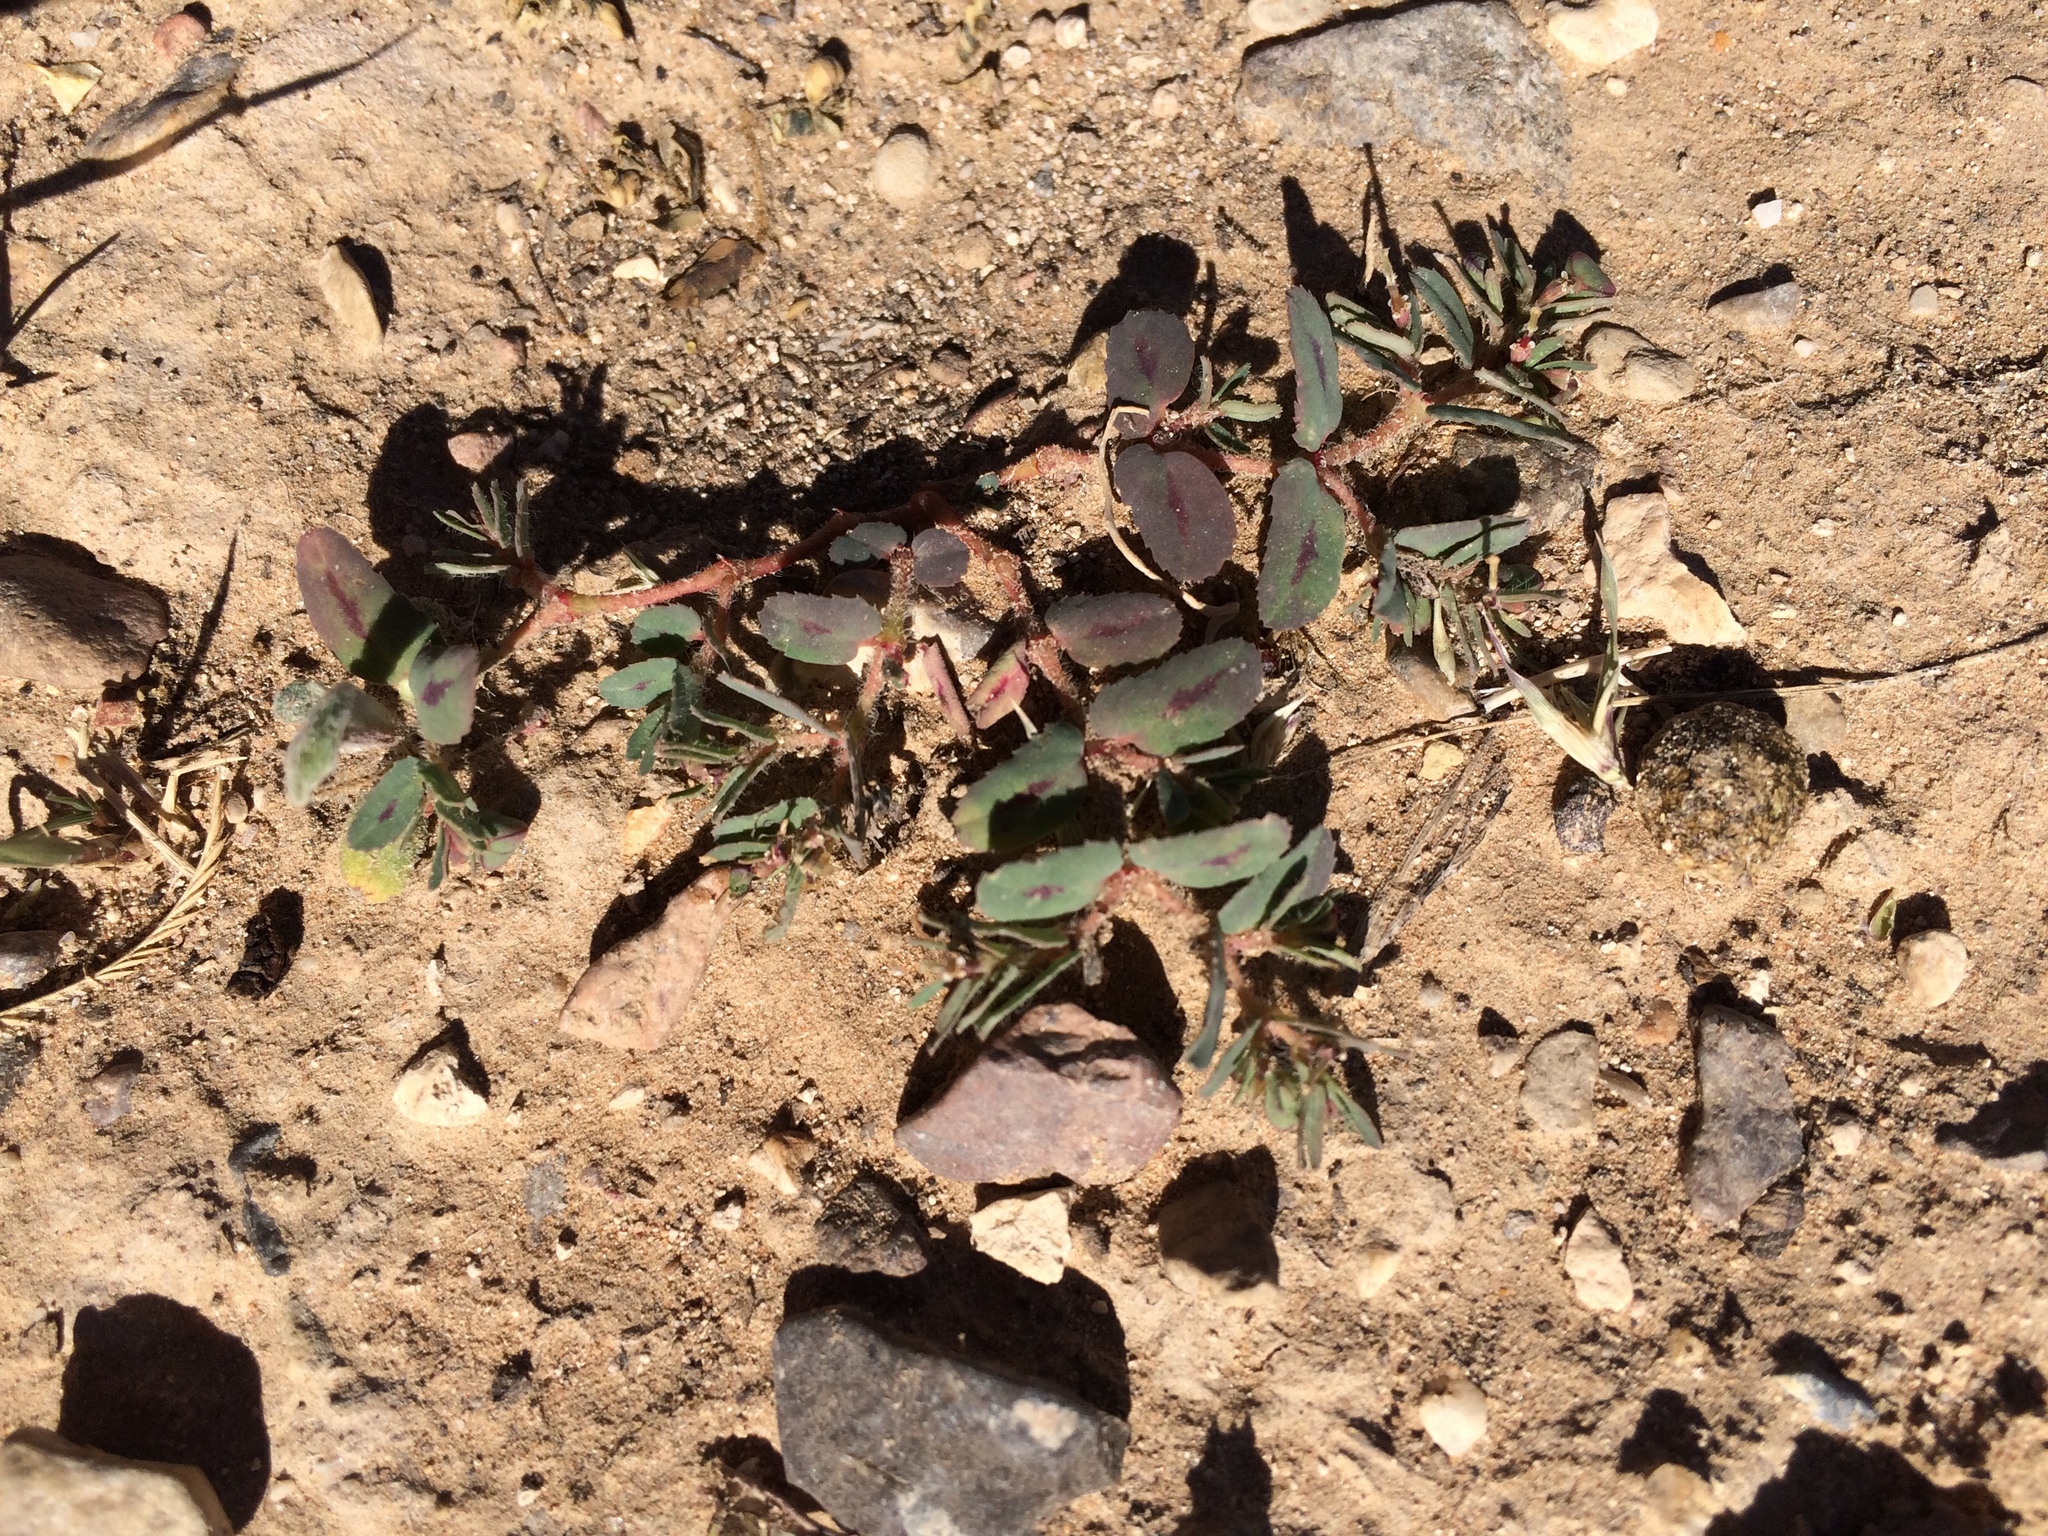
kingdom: Plantae
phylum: Tracheophyta
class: Magnoliopsida
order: Malpighiales
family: Euphorbiaceae
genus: Euphorbia
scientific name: Euphorbia serrula
